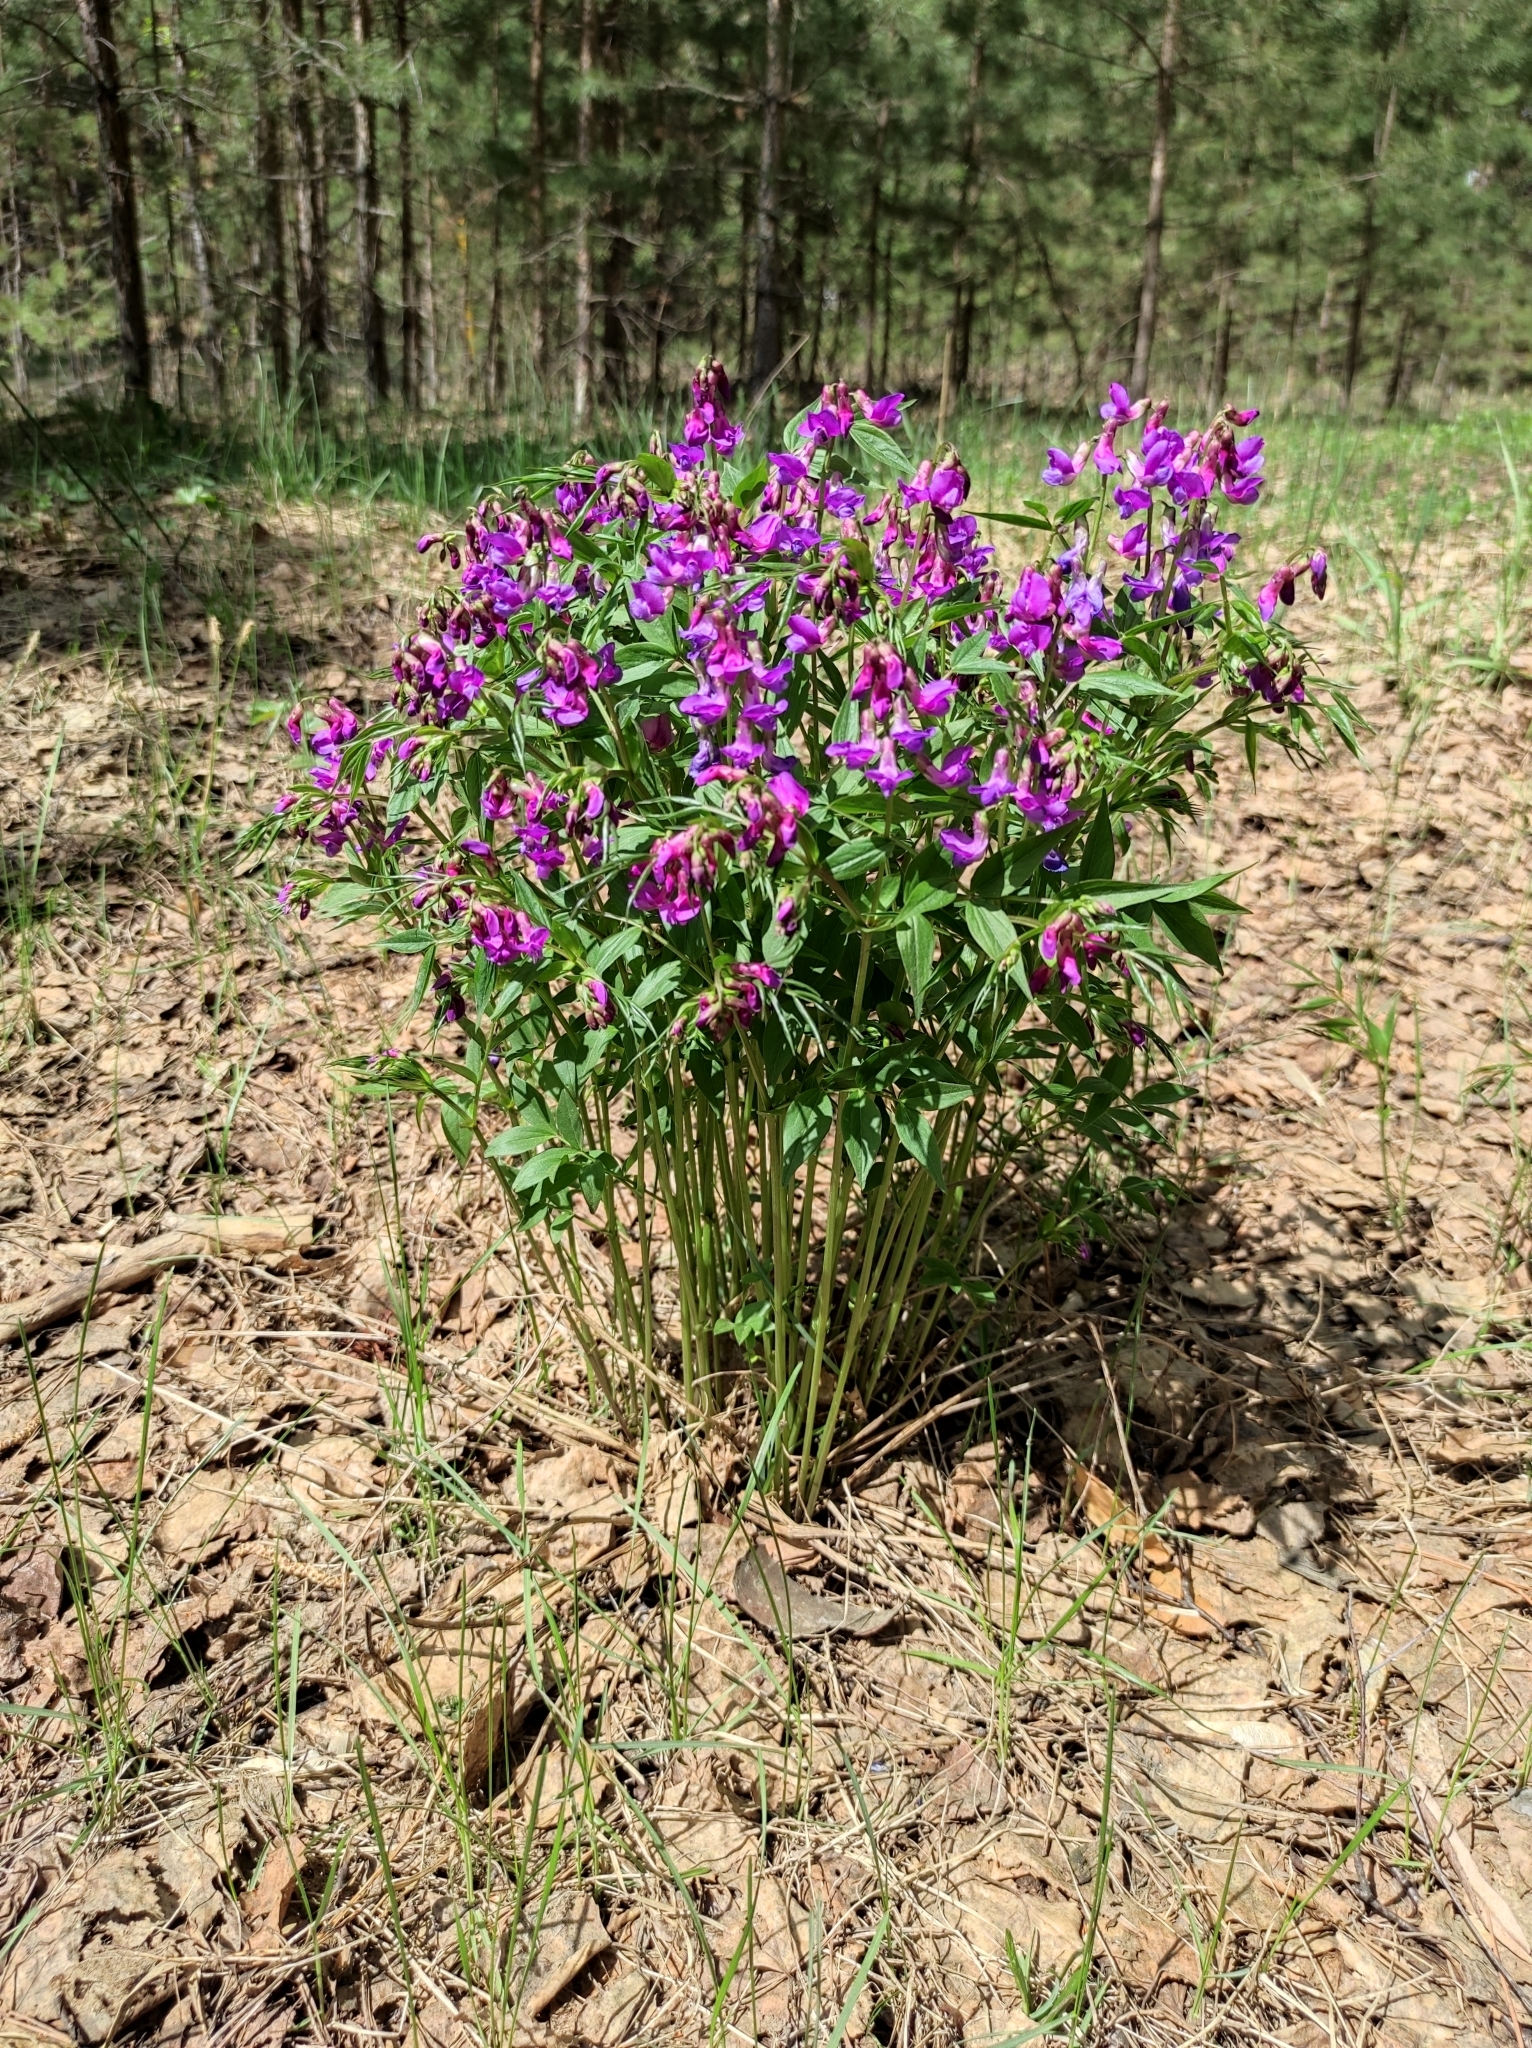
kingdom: Plantae
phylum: Tracheophyta
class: Magnoliopsida
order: Fabales
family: Fabaceae
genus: Lathyrus
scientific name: Lathyrus vernus
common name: Spring pea
